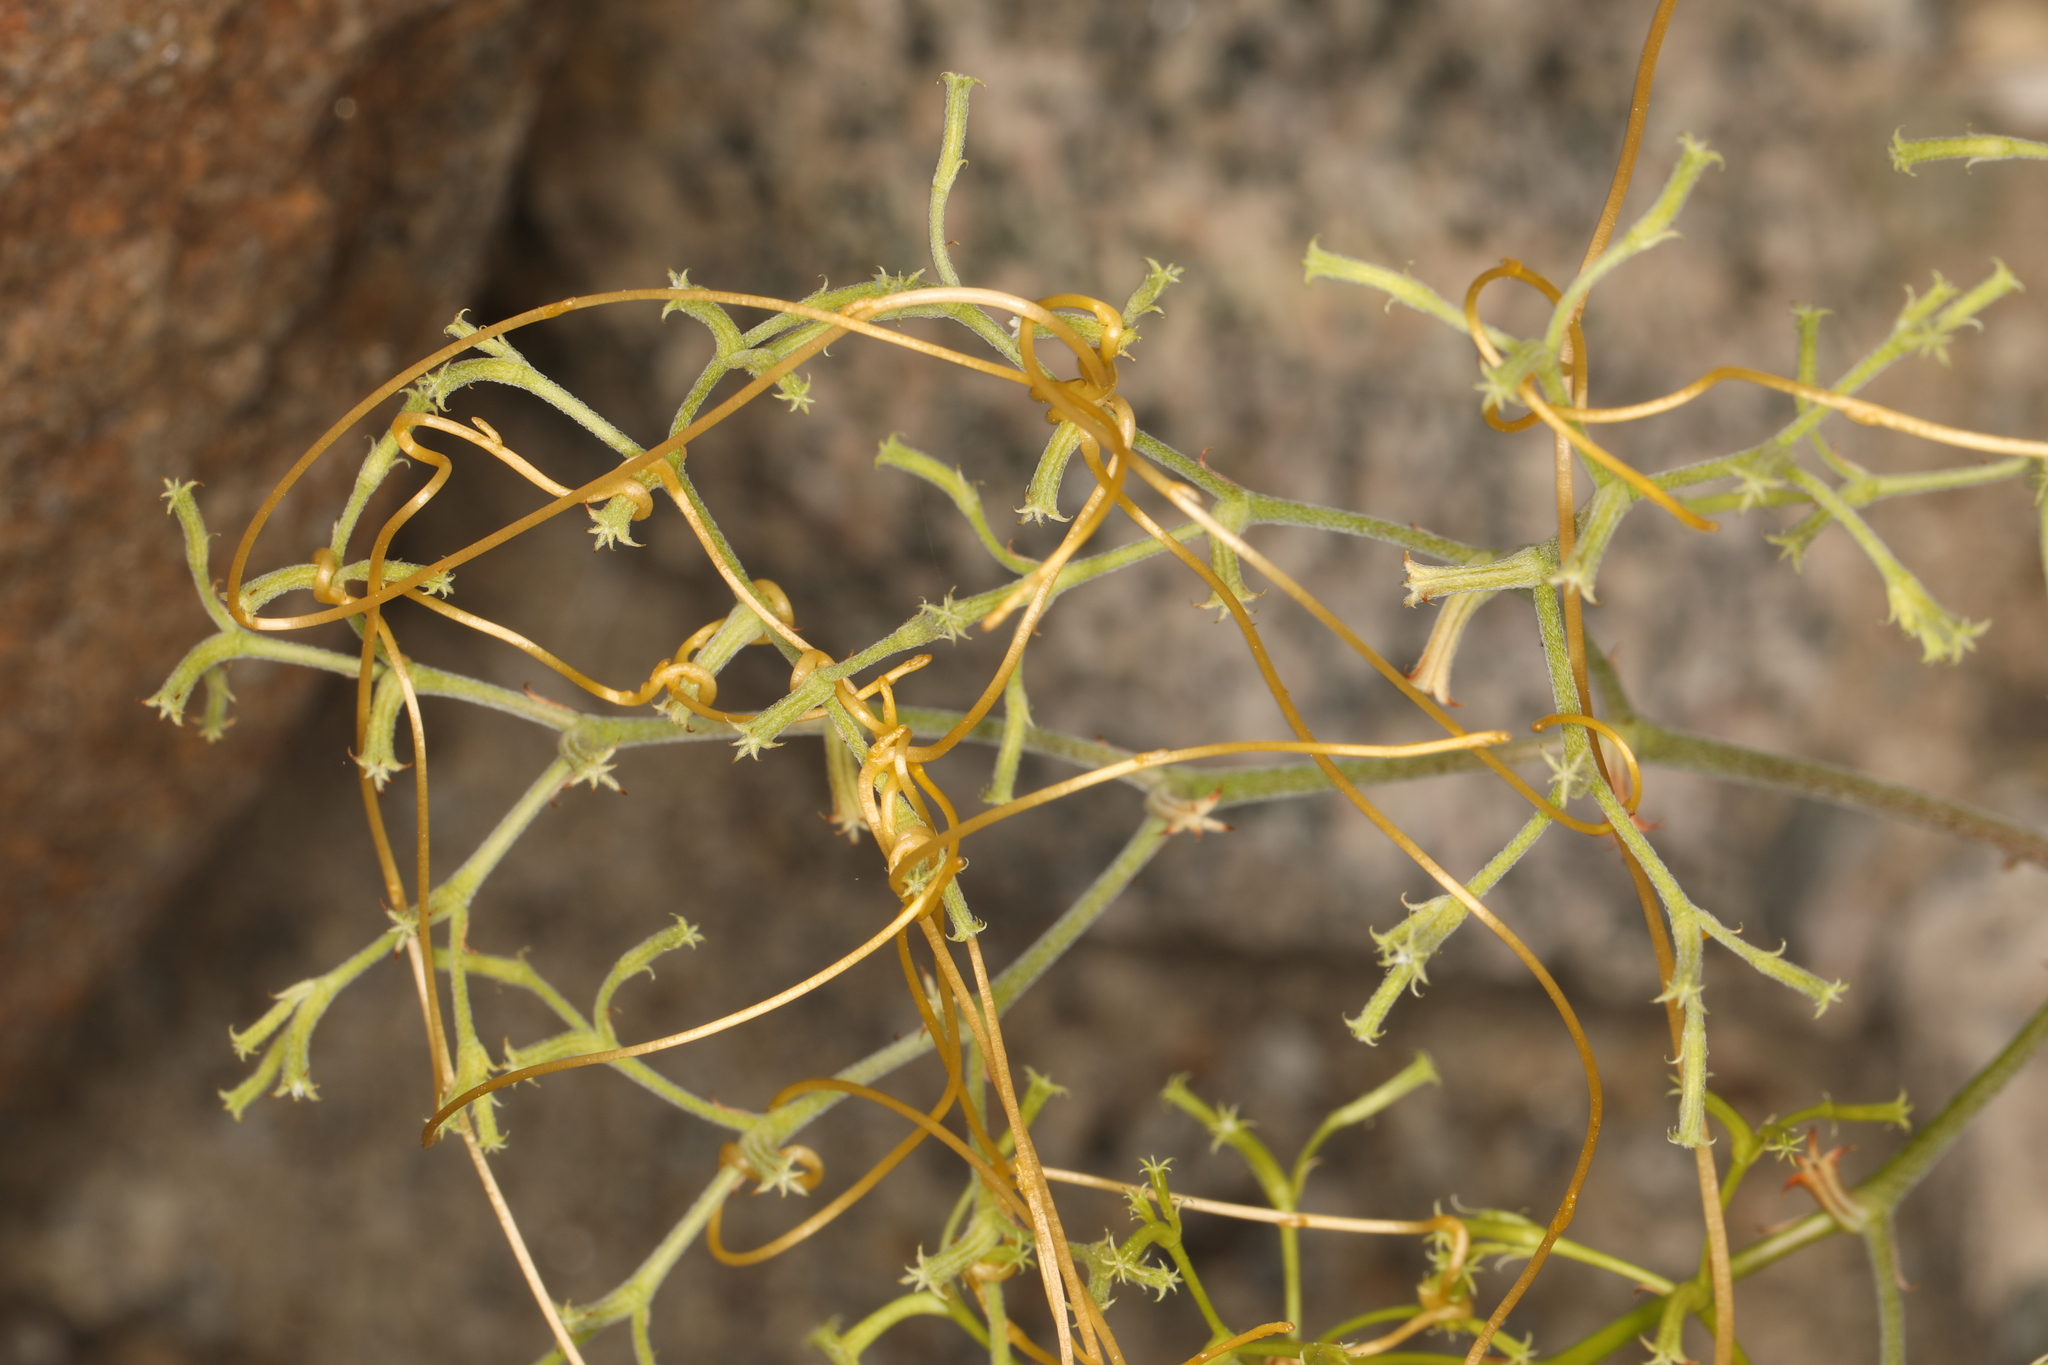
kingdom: Plantae
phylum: Tracheophyta
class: Magnoliopsida
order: Caryophyllales
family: Polygonaceae
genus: Chorizanthe
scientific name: Chorizanthe brevicornu
